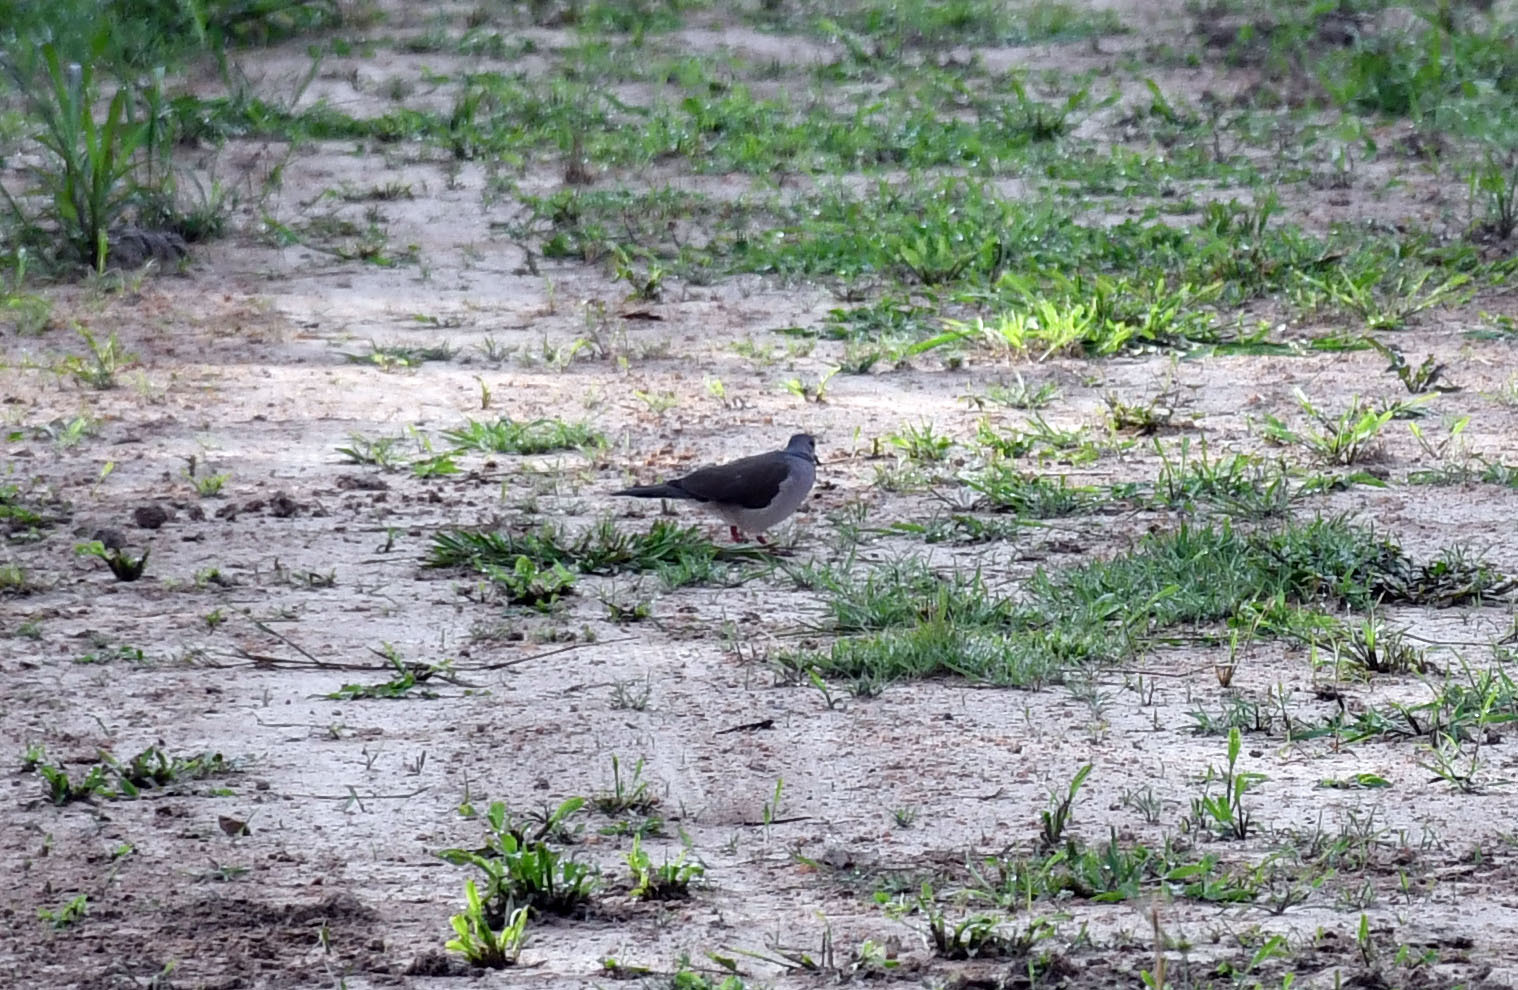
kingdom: Animalia
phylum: Chordata
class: Aves
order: Columbiformes
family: Columbidae
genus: Leptotila
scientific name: Leptotila rufaxilla
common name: Grey-fronted dove
